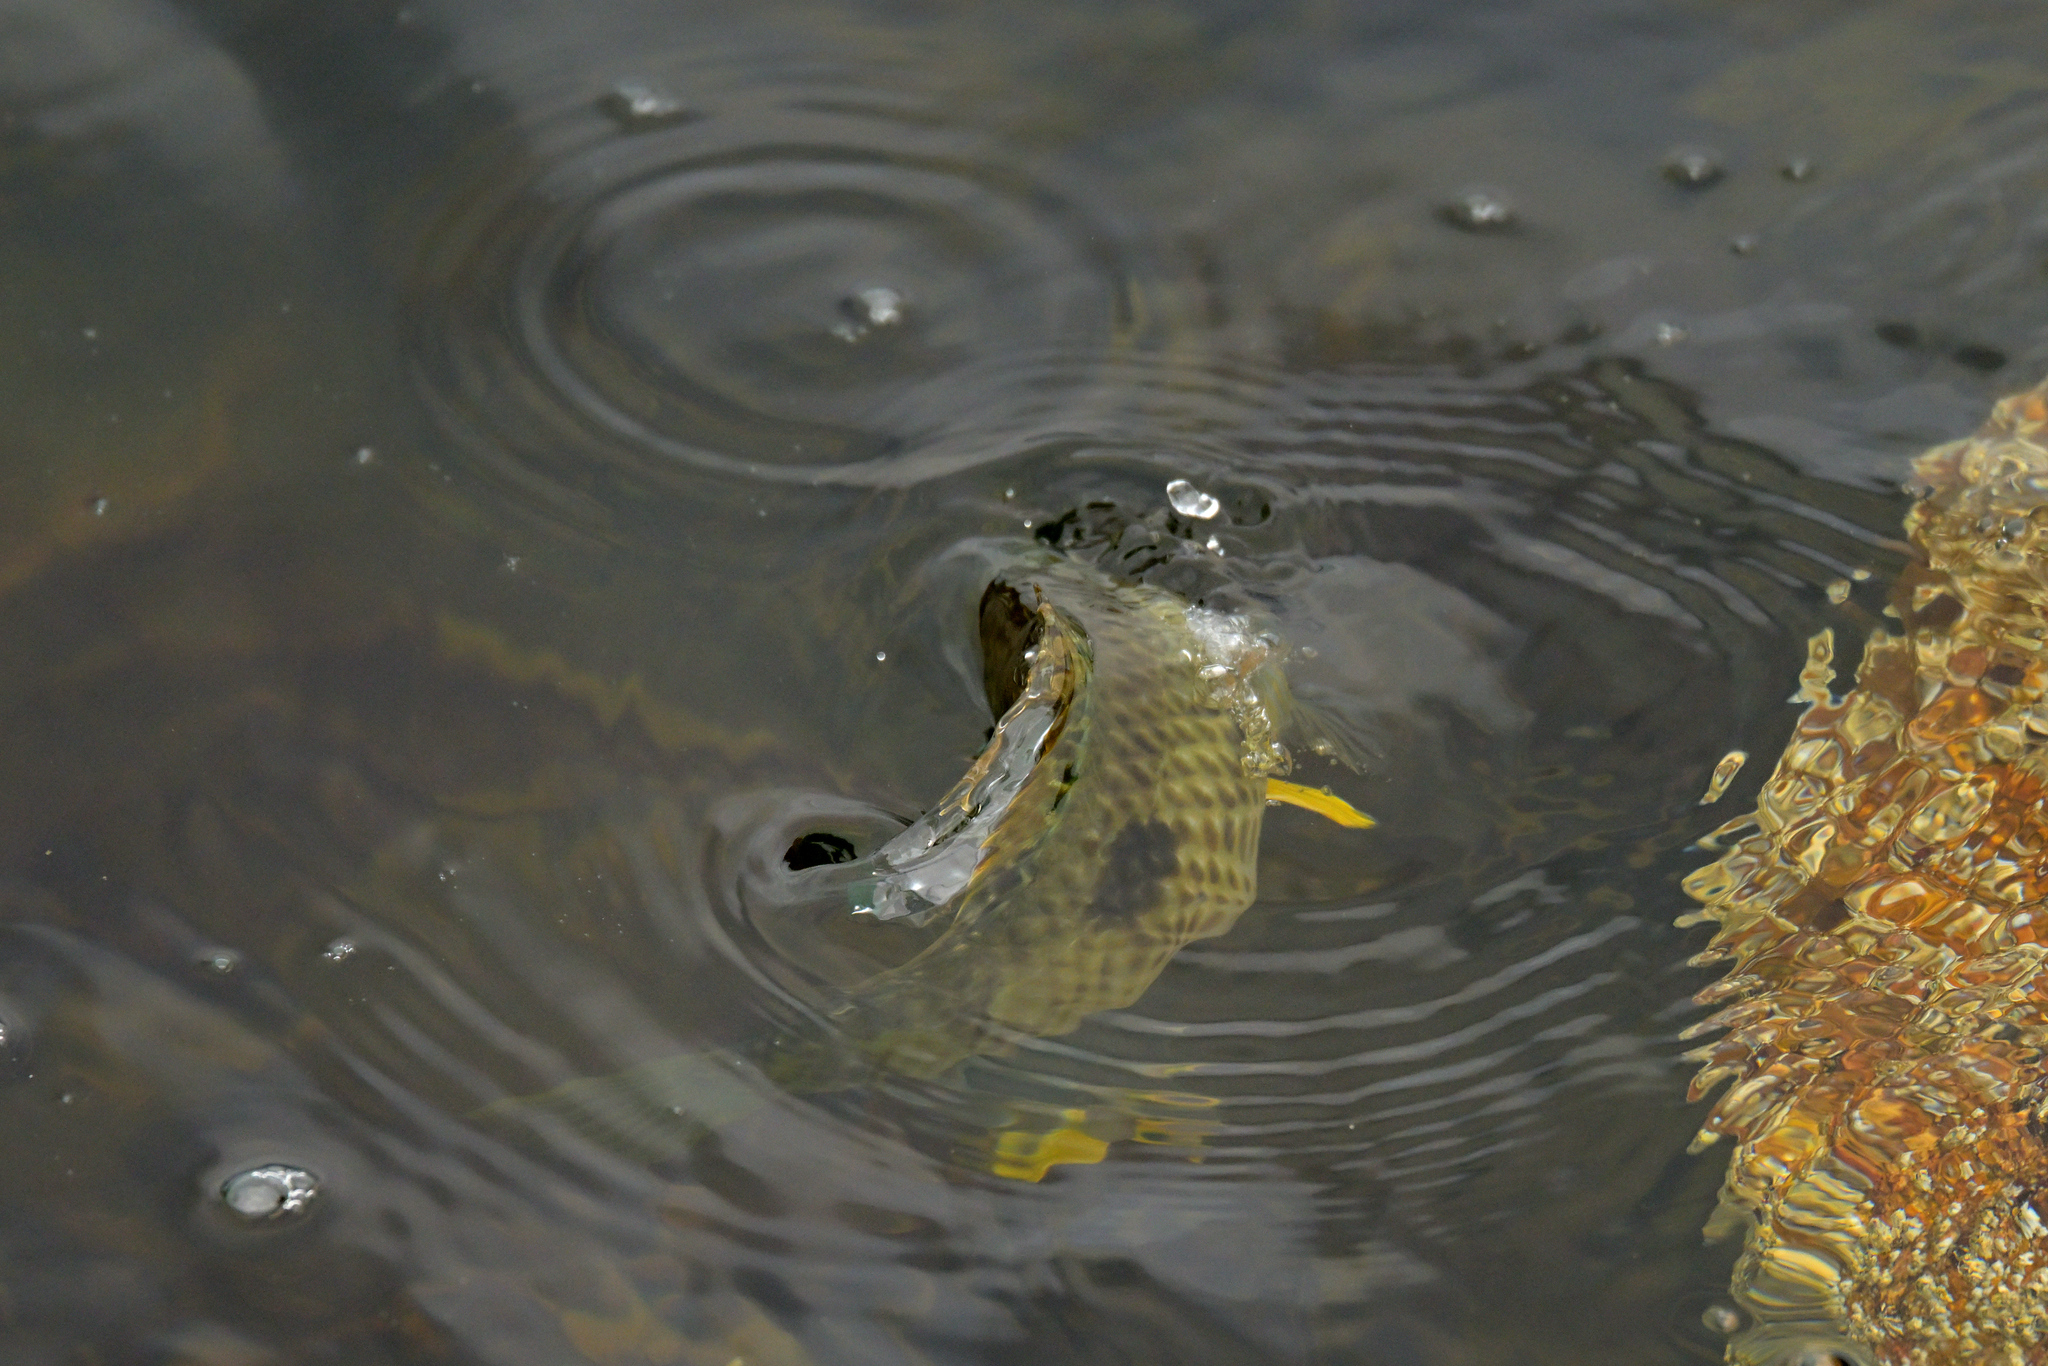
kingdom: Animalia
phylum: Chordata
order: Perciformes
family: Labridae
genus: Notolabrus
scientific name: Notolabrus celidotus
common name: Spotty
